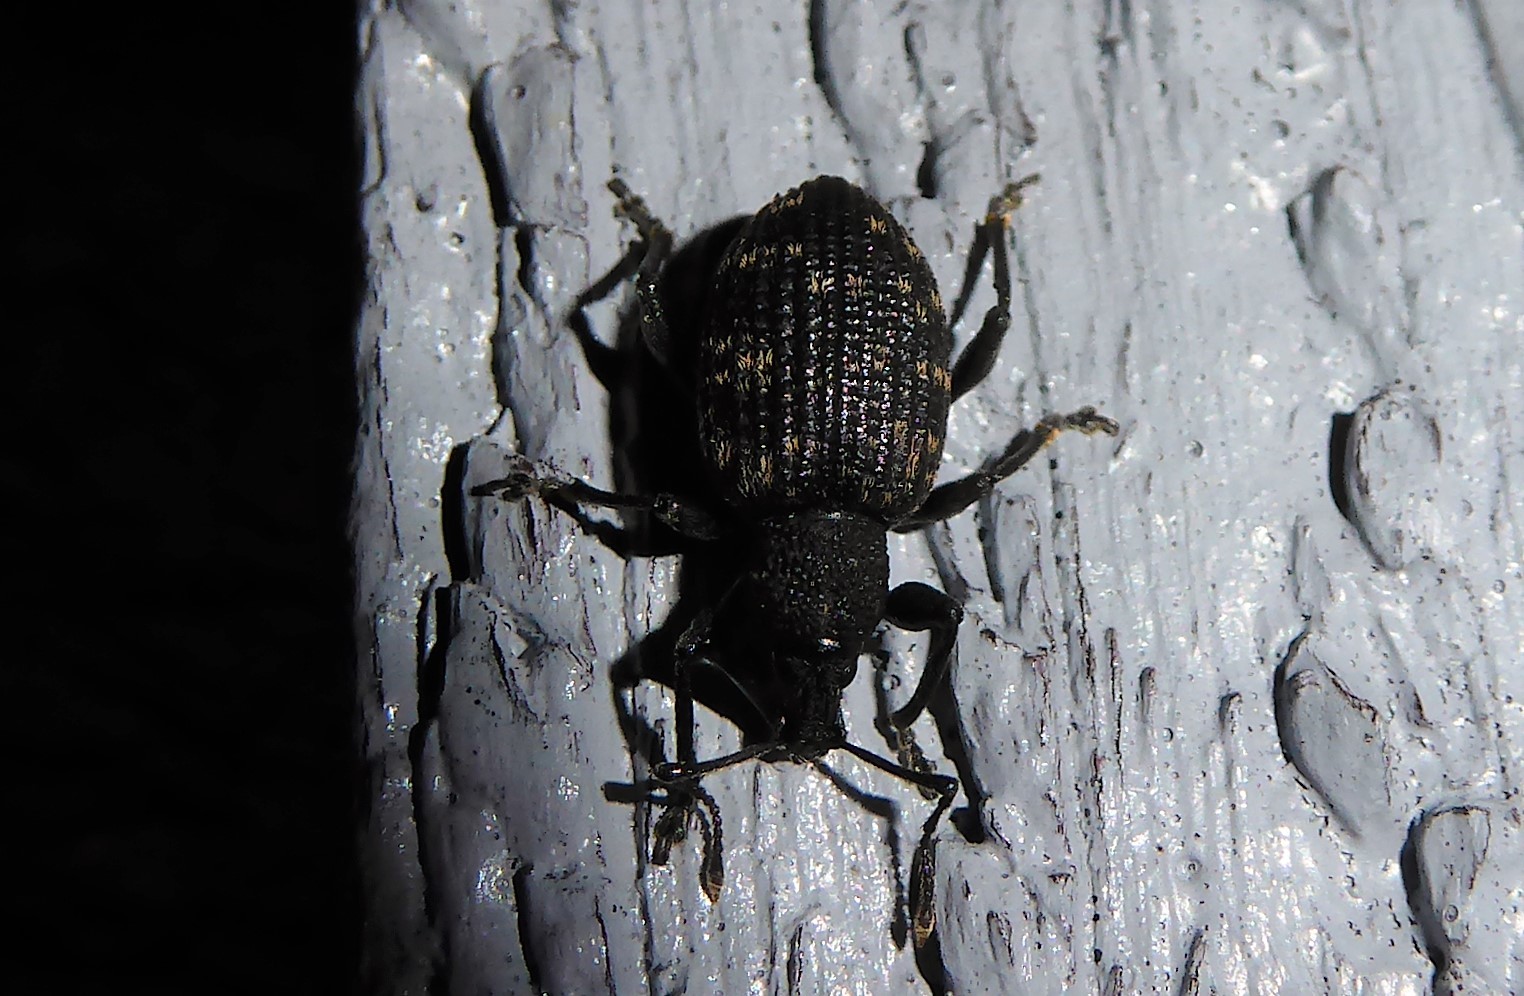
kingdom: Animalia
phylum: Arthropoda
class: Insecta
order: Coleoptera
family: Curculionidae
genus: Otiorhynchus
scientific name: Otiorhynchus sulcatus
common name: Black vine weevil
